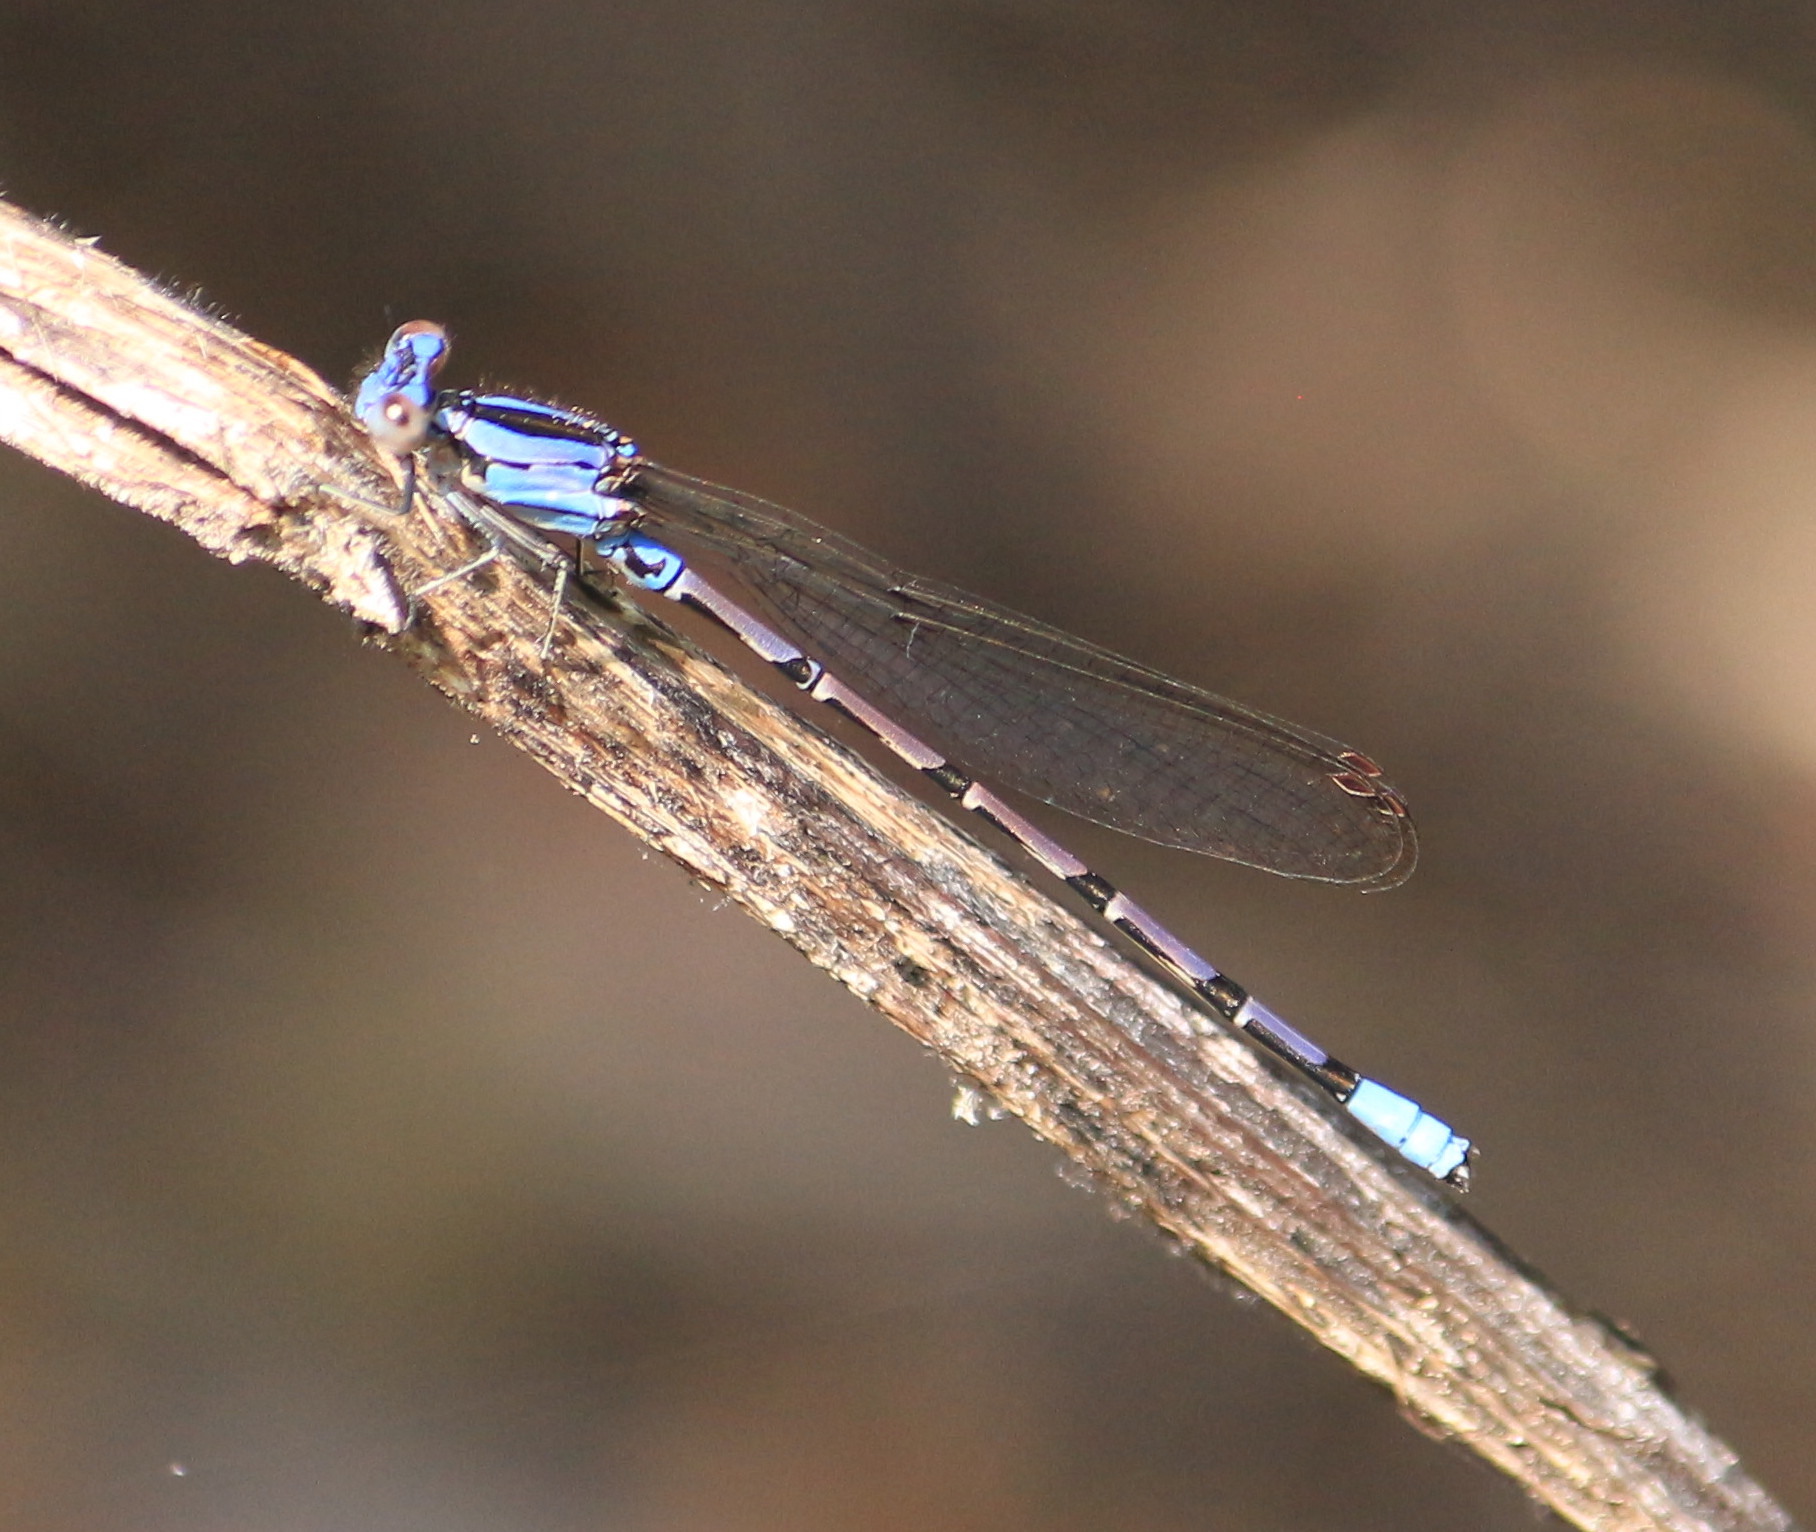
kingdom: Animalia
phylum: Arthropoda
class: Insecta
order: Odonata
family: Coenagrionidae
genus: Argia
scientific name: Argia elongata
